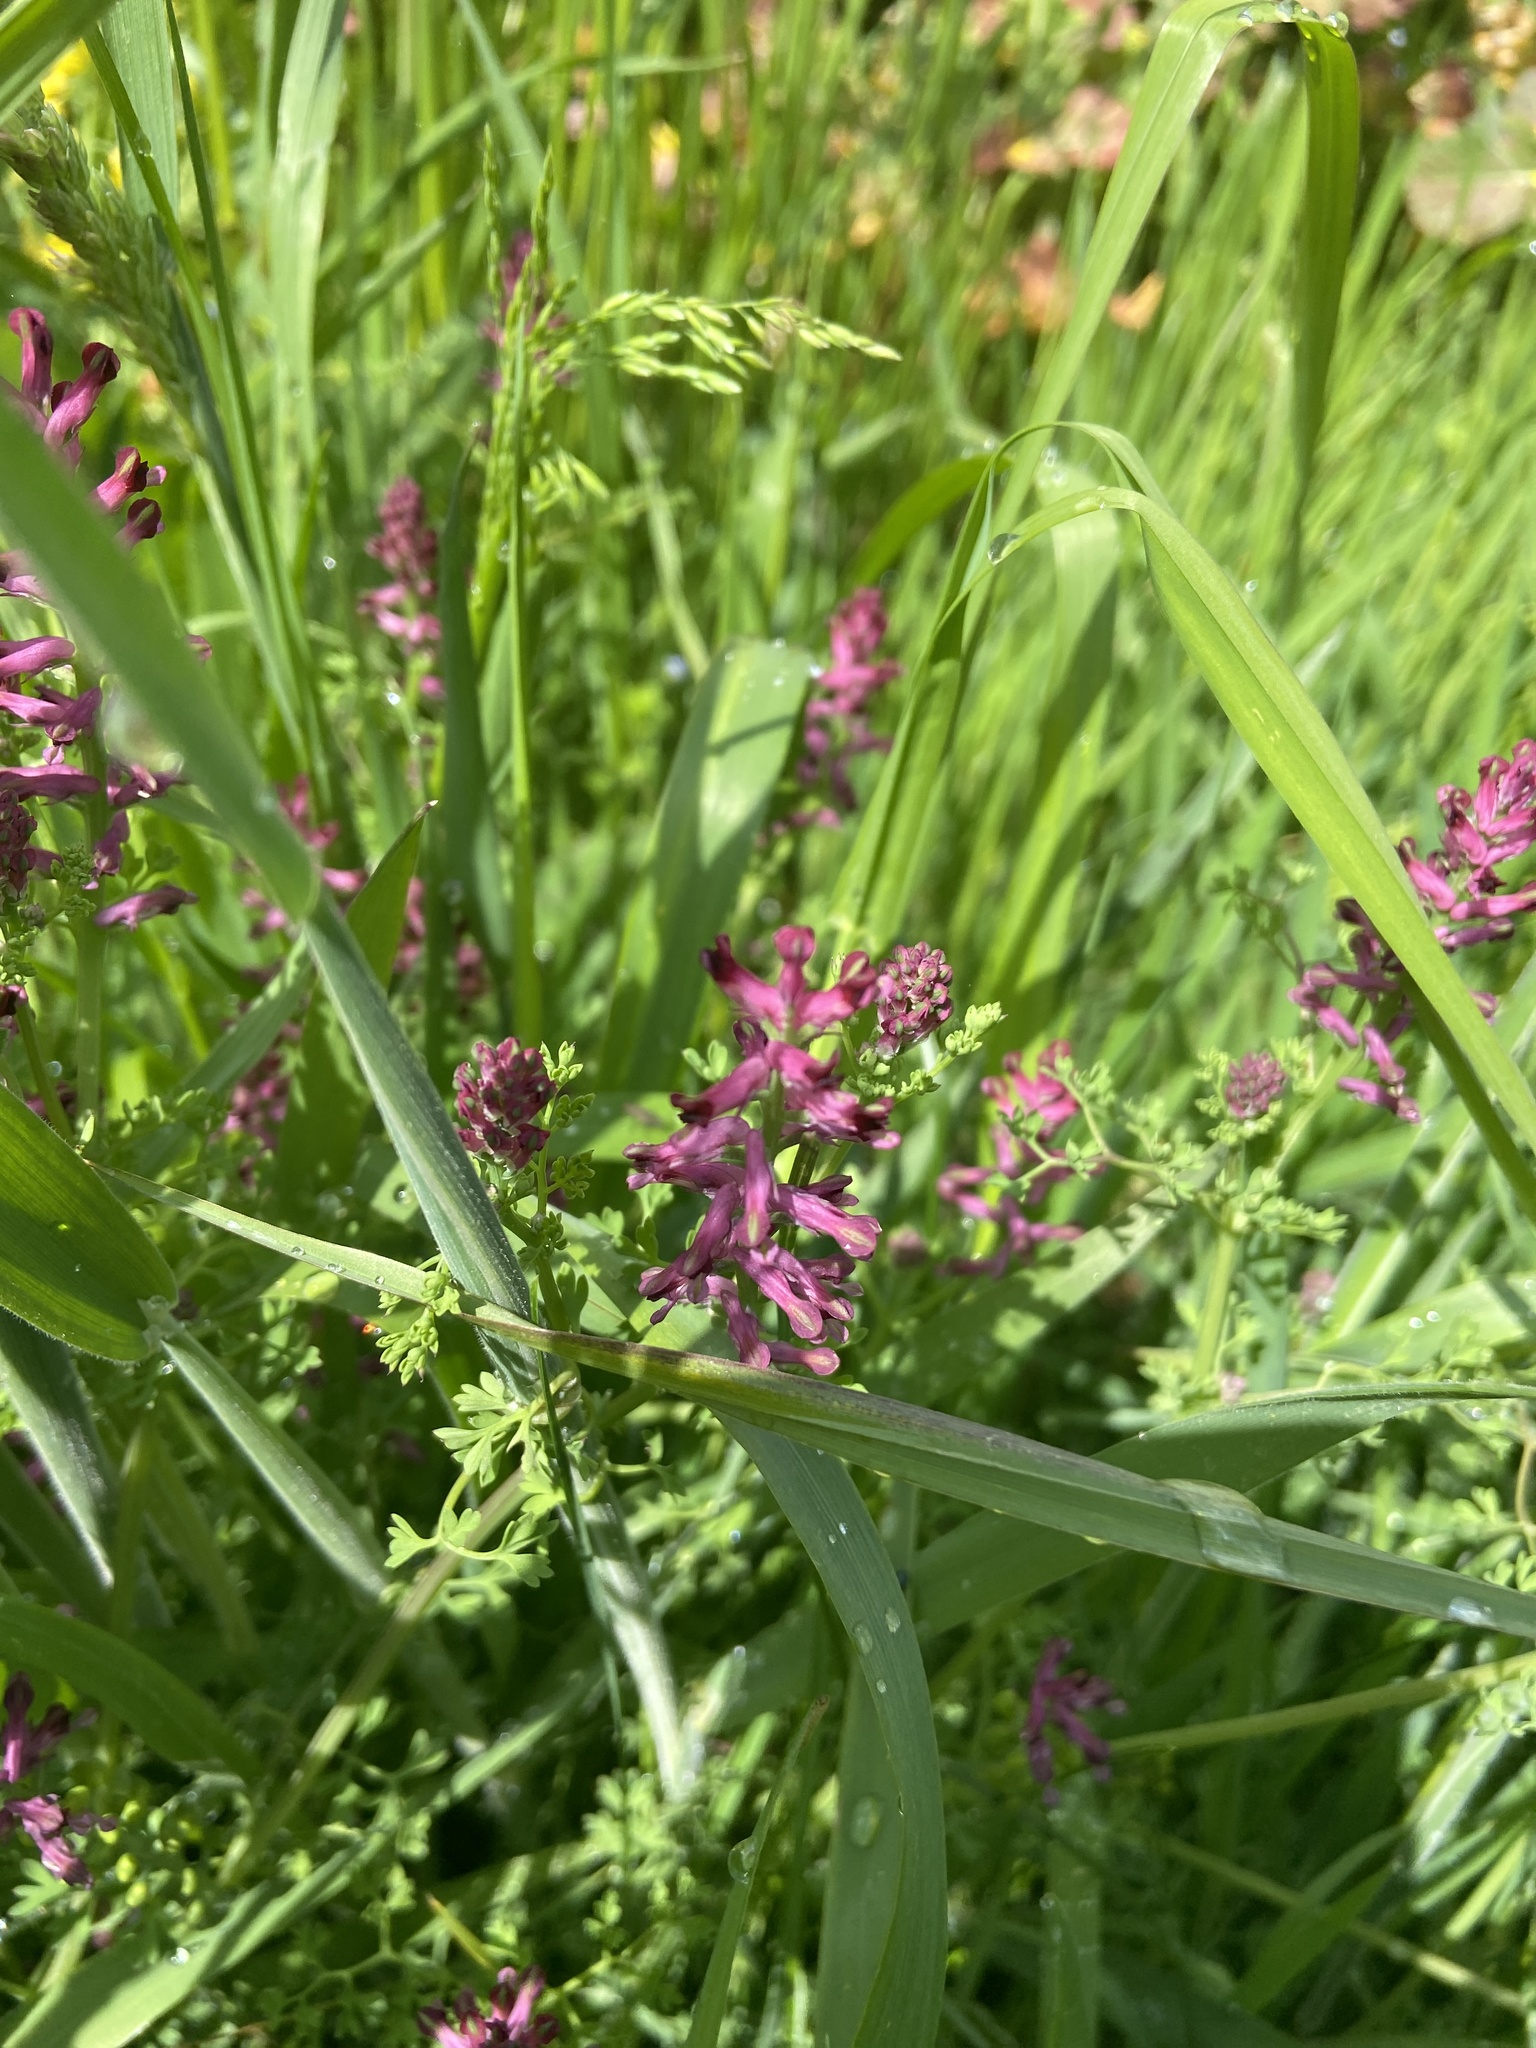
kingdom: Plantae
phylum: Tracheophyta
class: Magnoliopsida
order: Ranunculales
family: Papaveraceae
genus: Fumaria
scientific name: Fumaria officinalis
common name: Common fumitory
